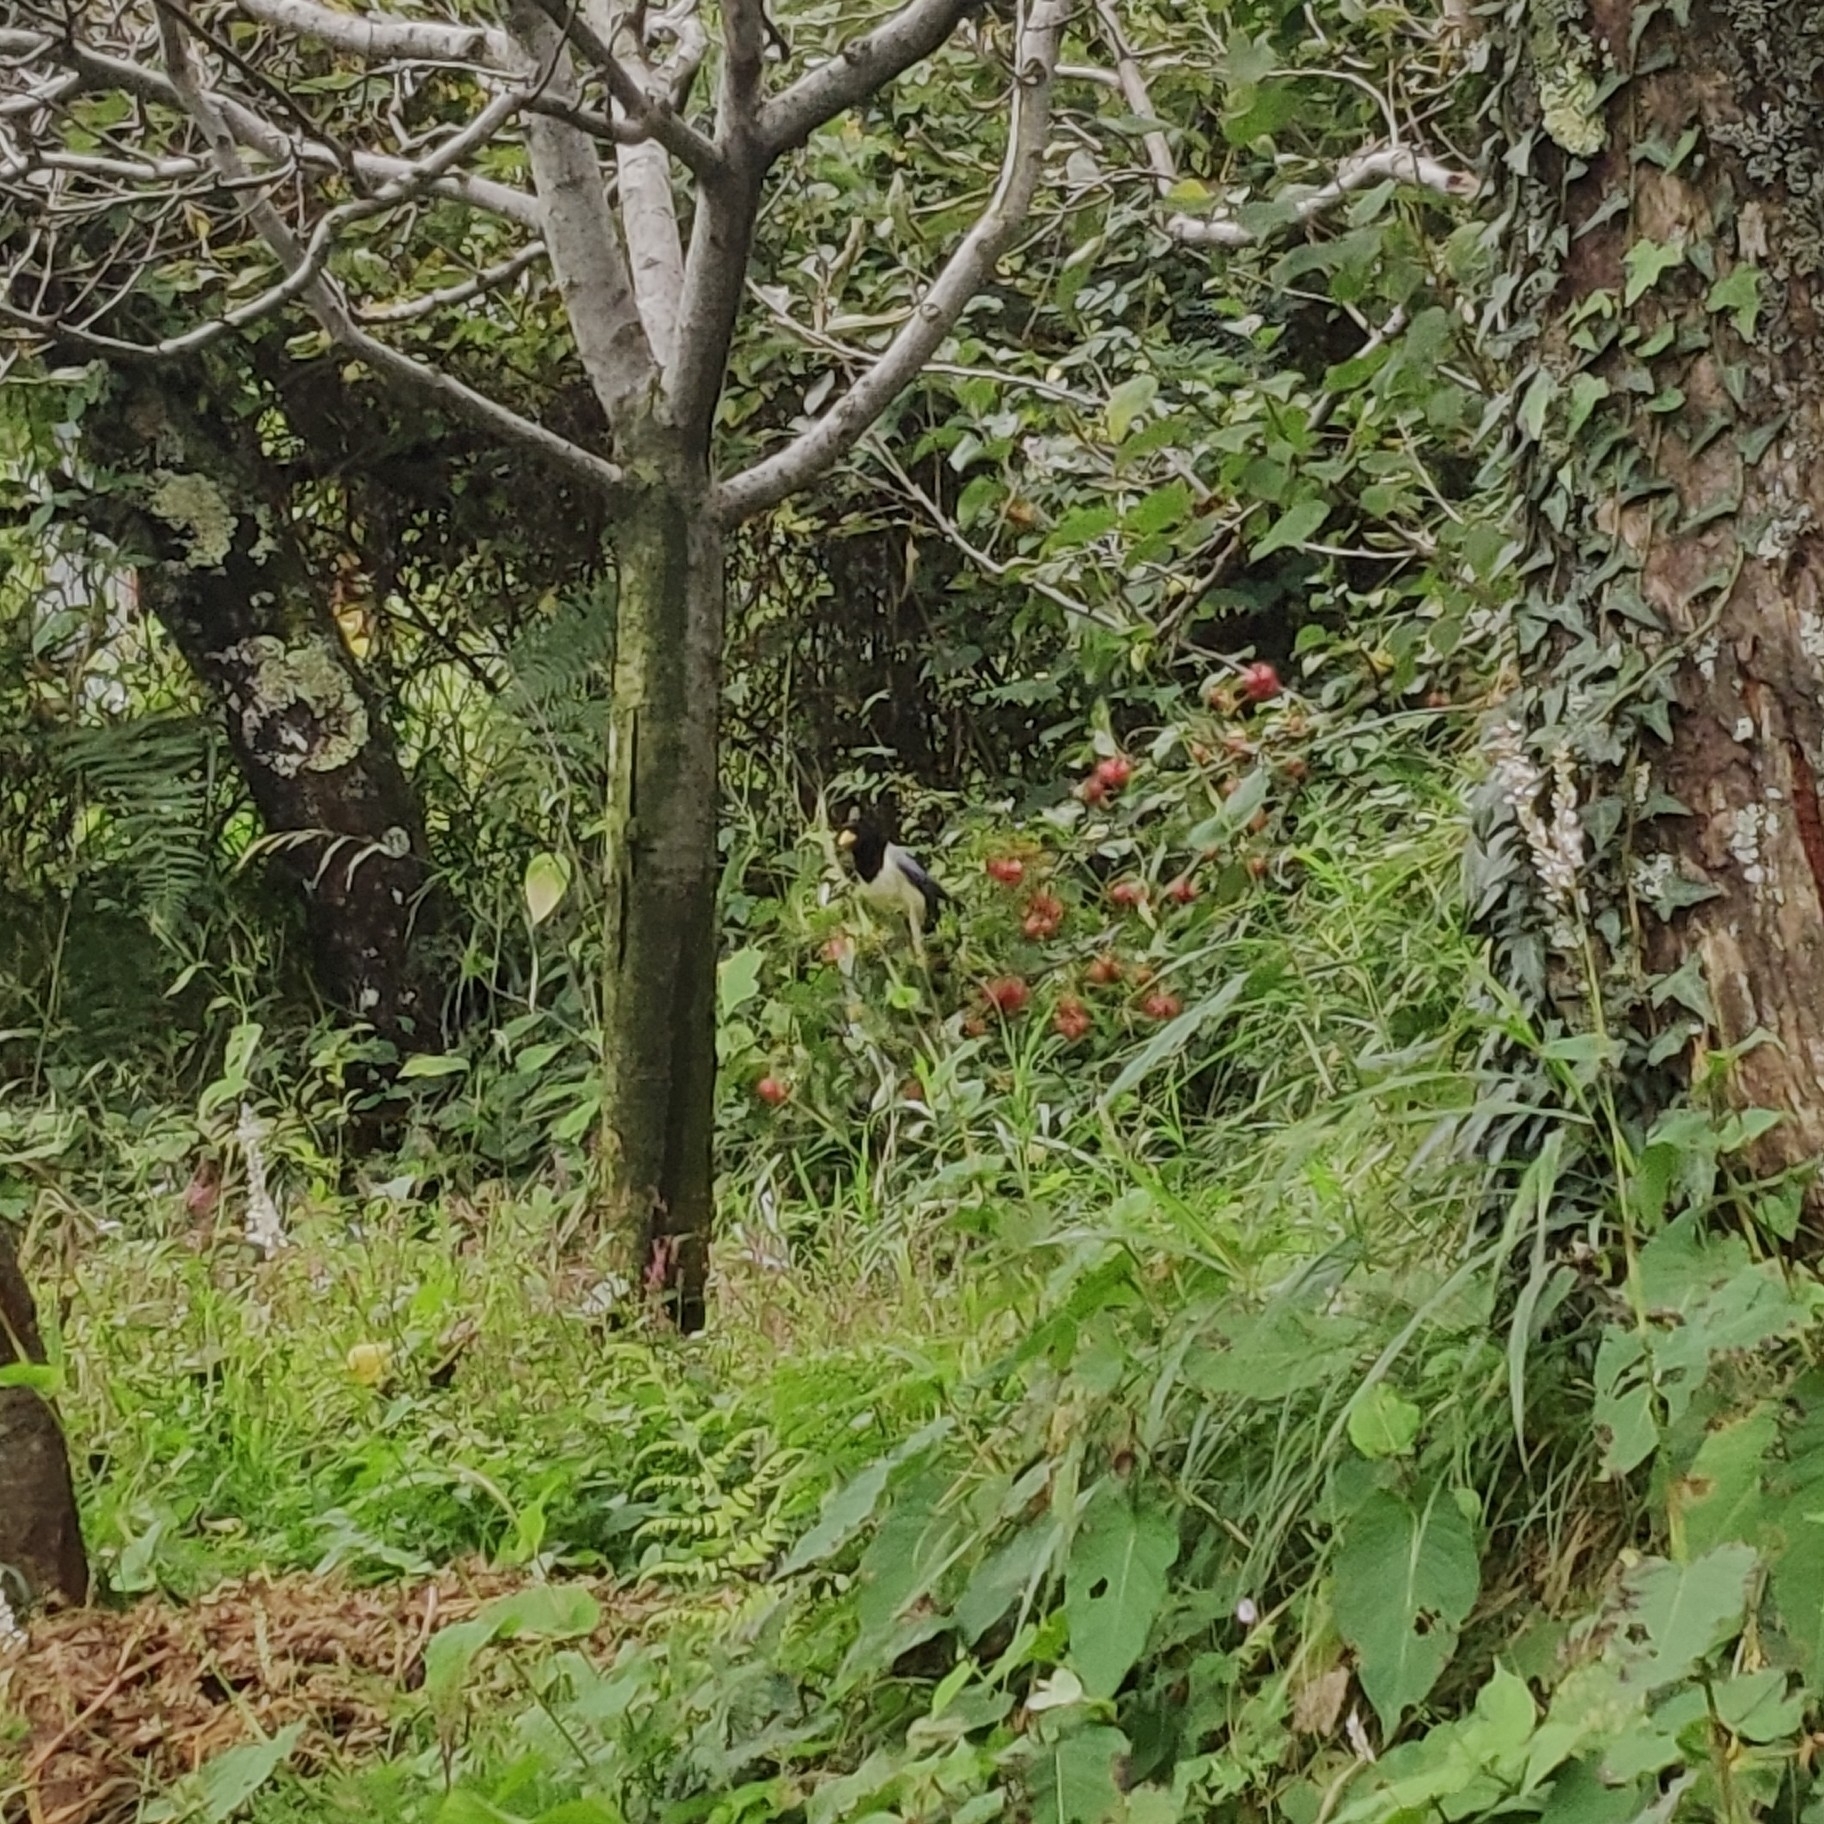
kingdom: Animalia
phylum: Chordata
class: Aves
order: Passeriformes
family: Corvidae
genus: Urocissa
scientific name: Urocissa flavirostris
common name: Yellow-billed blue magpie
